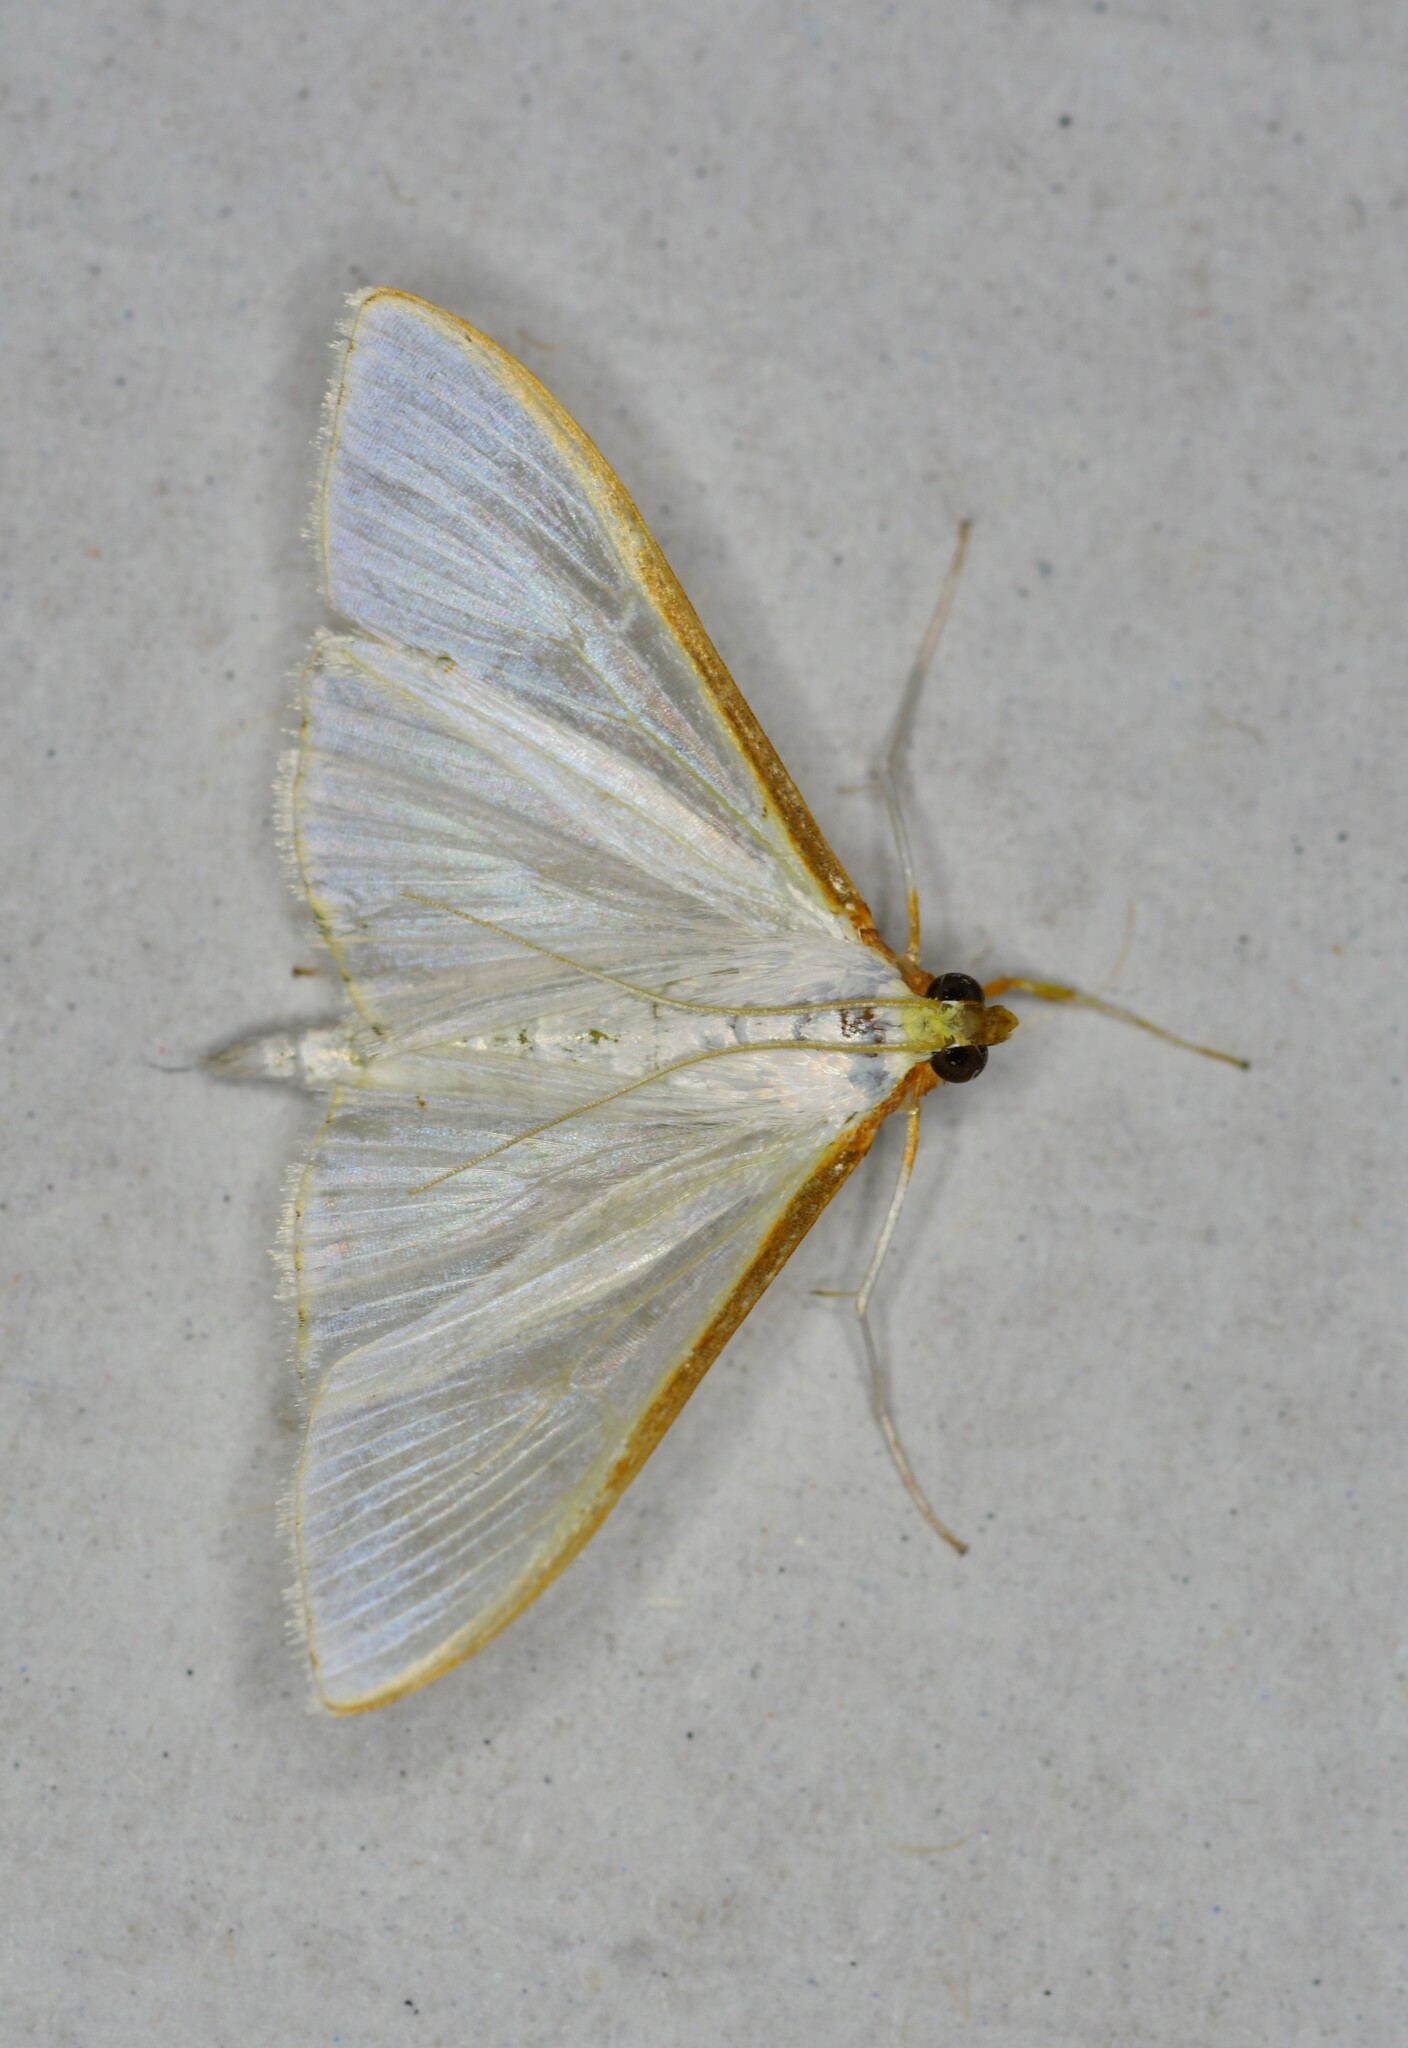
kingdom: Animalia
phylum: Arthropoda
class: Insecta
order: Lepidoptera
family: Crambidae
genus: Palpita
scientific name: Palpita vitrealis
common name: Olive-tree pearl
